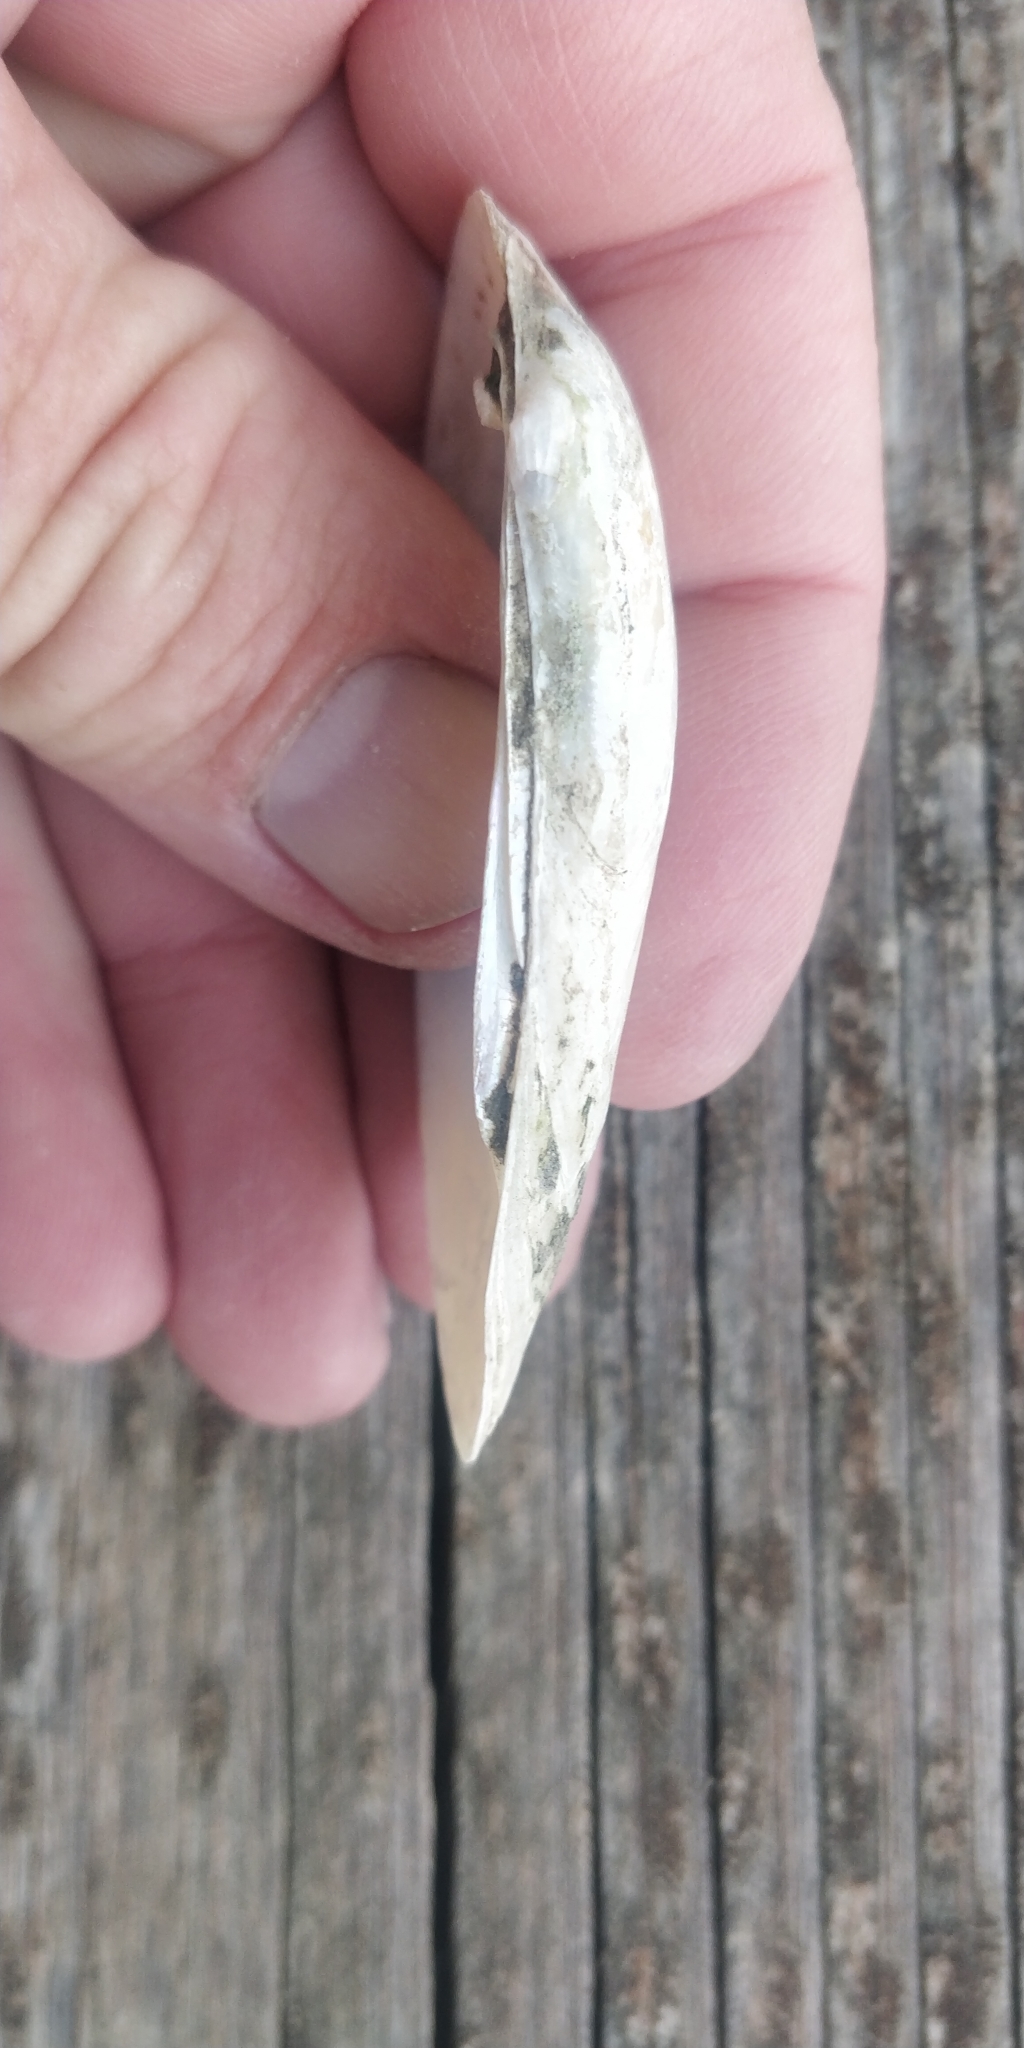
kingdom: Animalia
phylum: Mollusca
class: Bivalvia
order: Unionida
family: Unionidae
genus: Lampsilis
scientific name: Lampsilis teres
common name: Yellow sandshell
